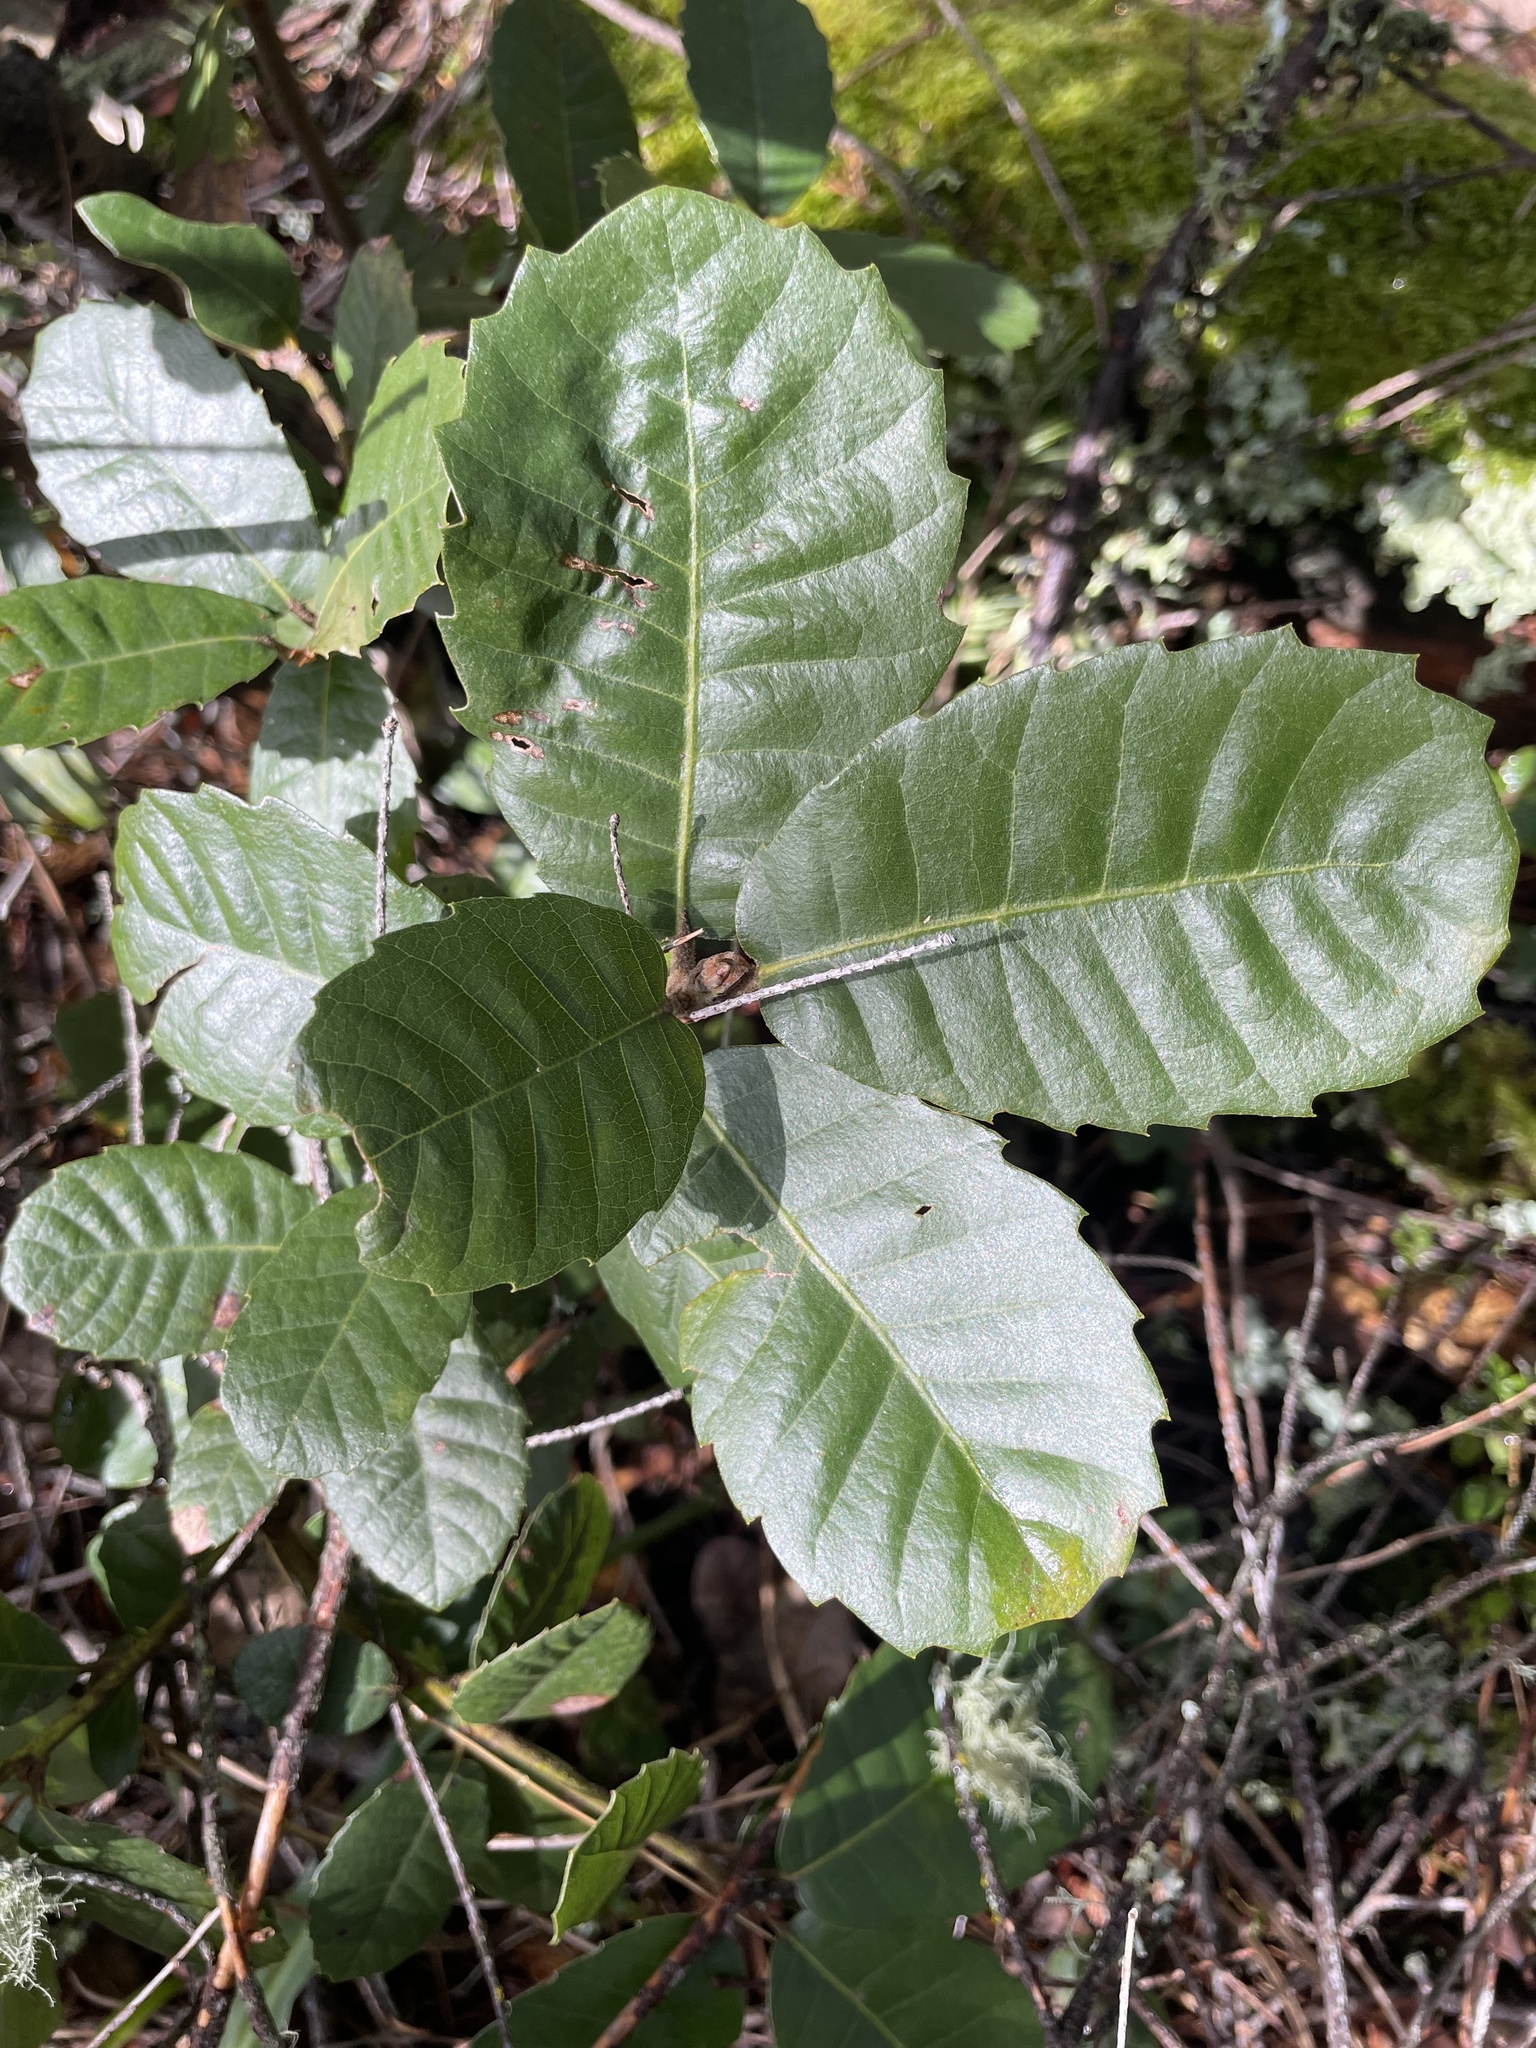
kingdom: Plantae
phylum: Tracheophyta
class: Magnoliopsida
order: Fagales
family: Fagaceae
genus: Notholithocarpus
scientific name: Notholithocarpus densiflorus
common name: Tan bark oak
